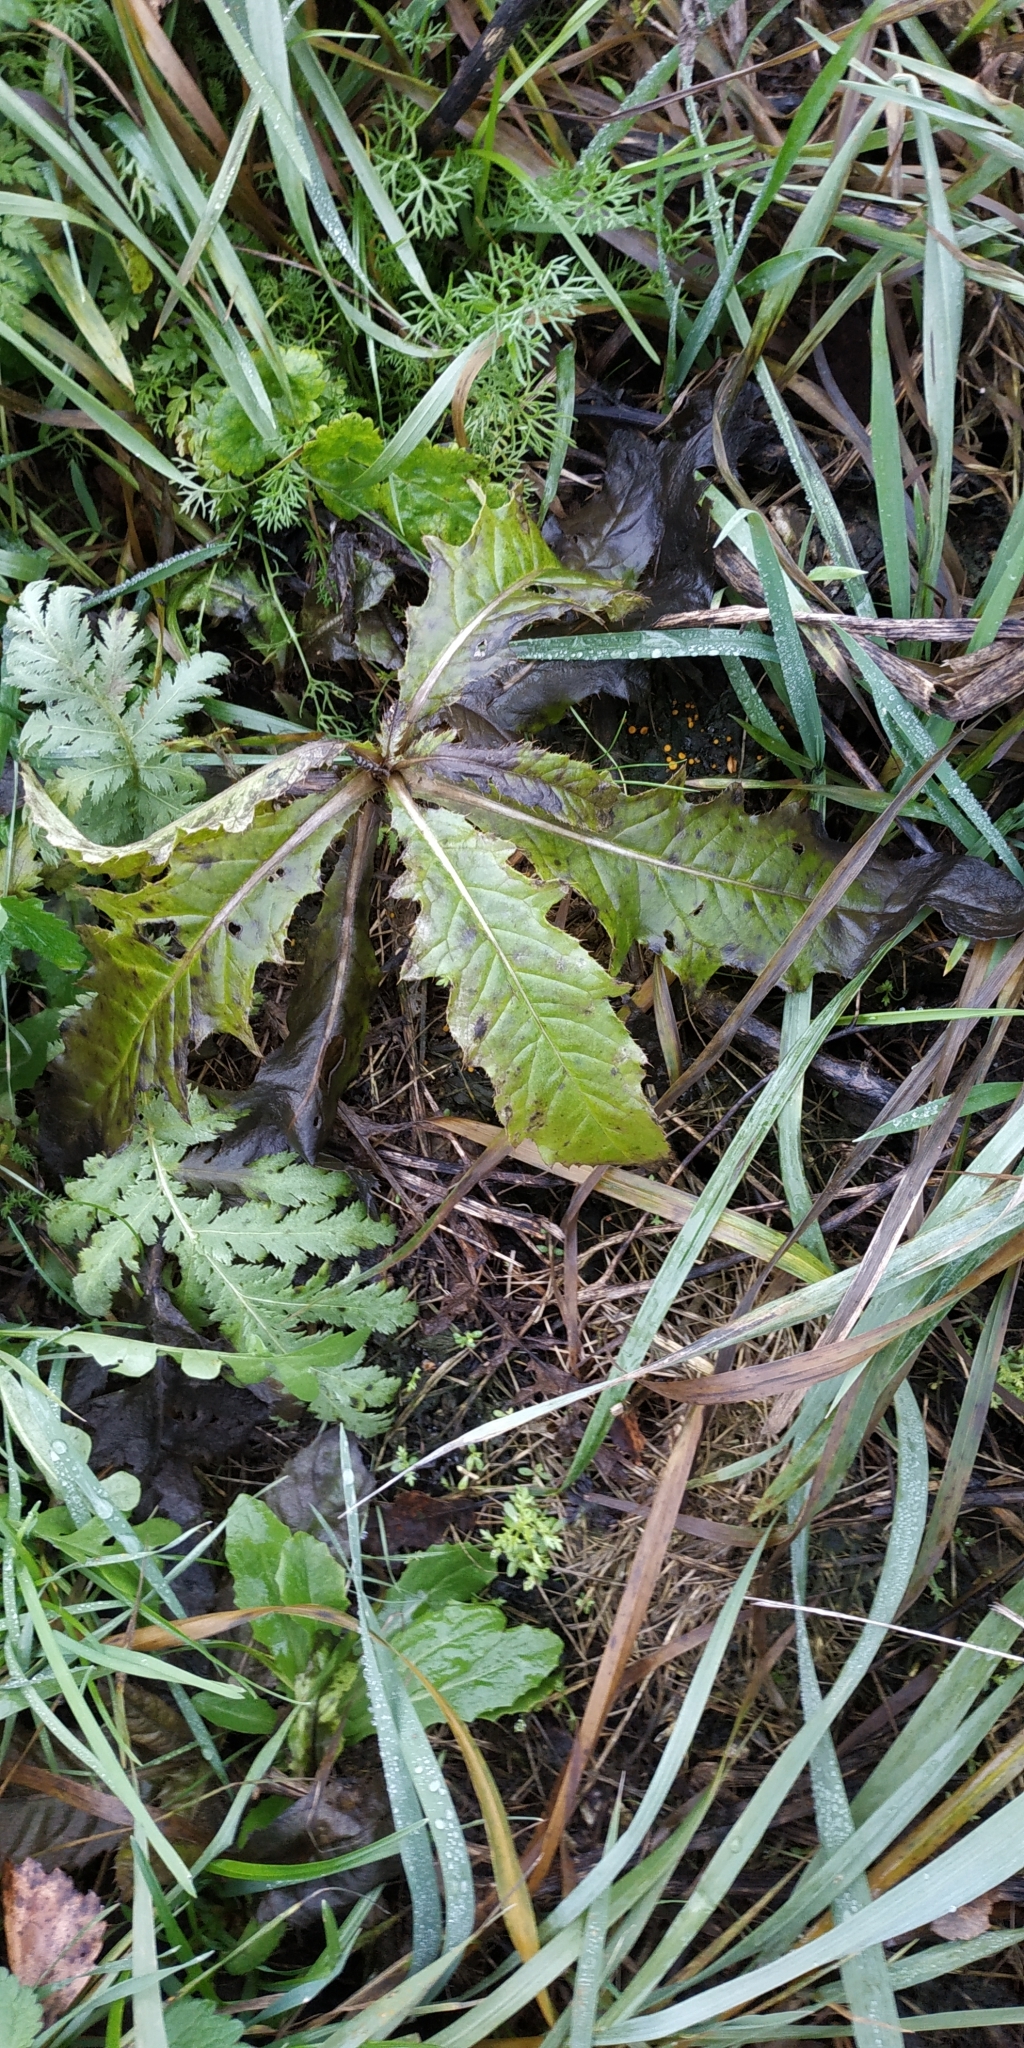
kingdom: Plantae
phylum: Tracheophyta
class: Magnoliopsida
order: Asterales
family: Asteraceae
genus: Cirsium
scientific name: Cirsium arvense
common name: Creeping thistle
